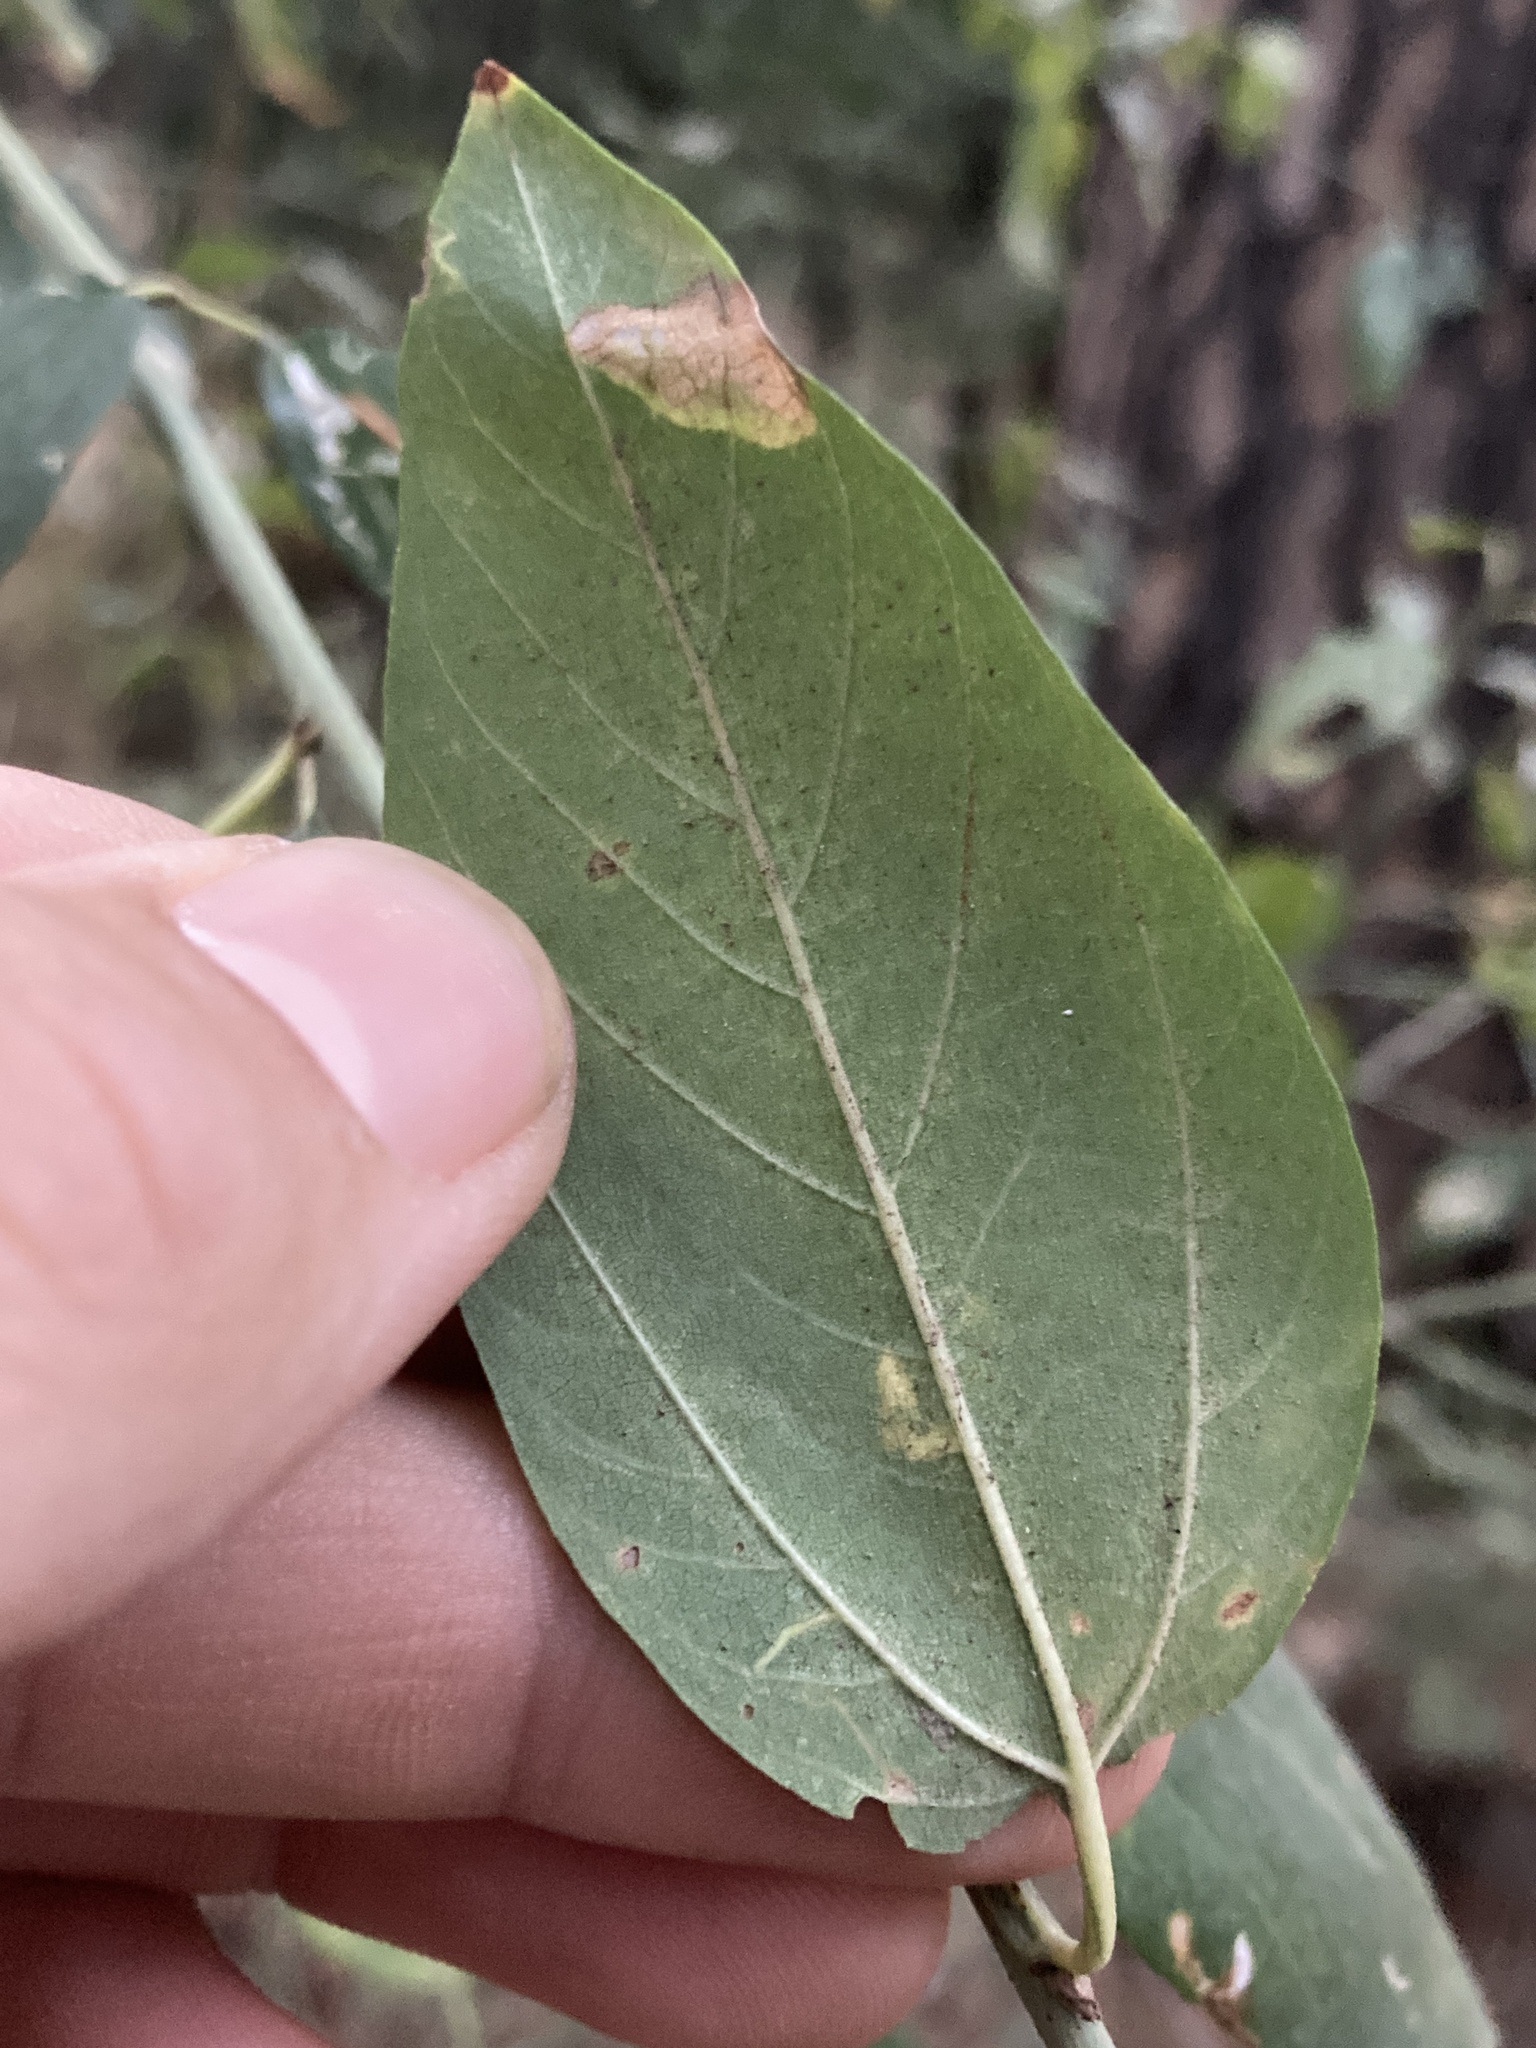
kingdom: Plantae
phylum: Tracheophyta
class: Magnoliopsida
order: Rosales
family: Rhamnaceae
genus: Ceanothus
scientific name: Ceanothus integerrimus
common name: Deerbrush ceanothus
